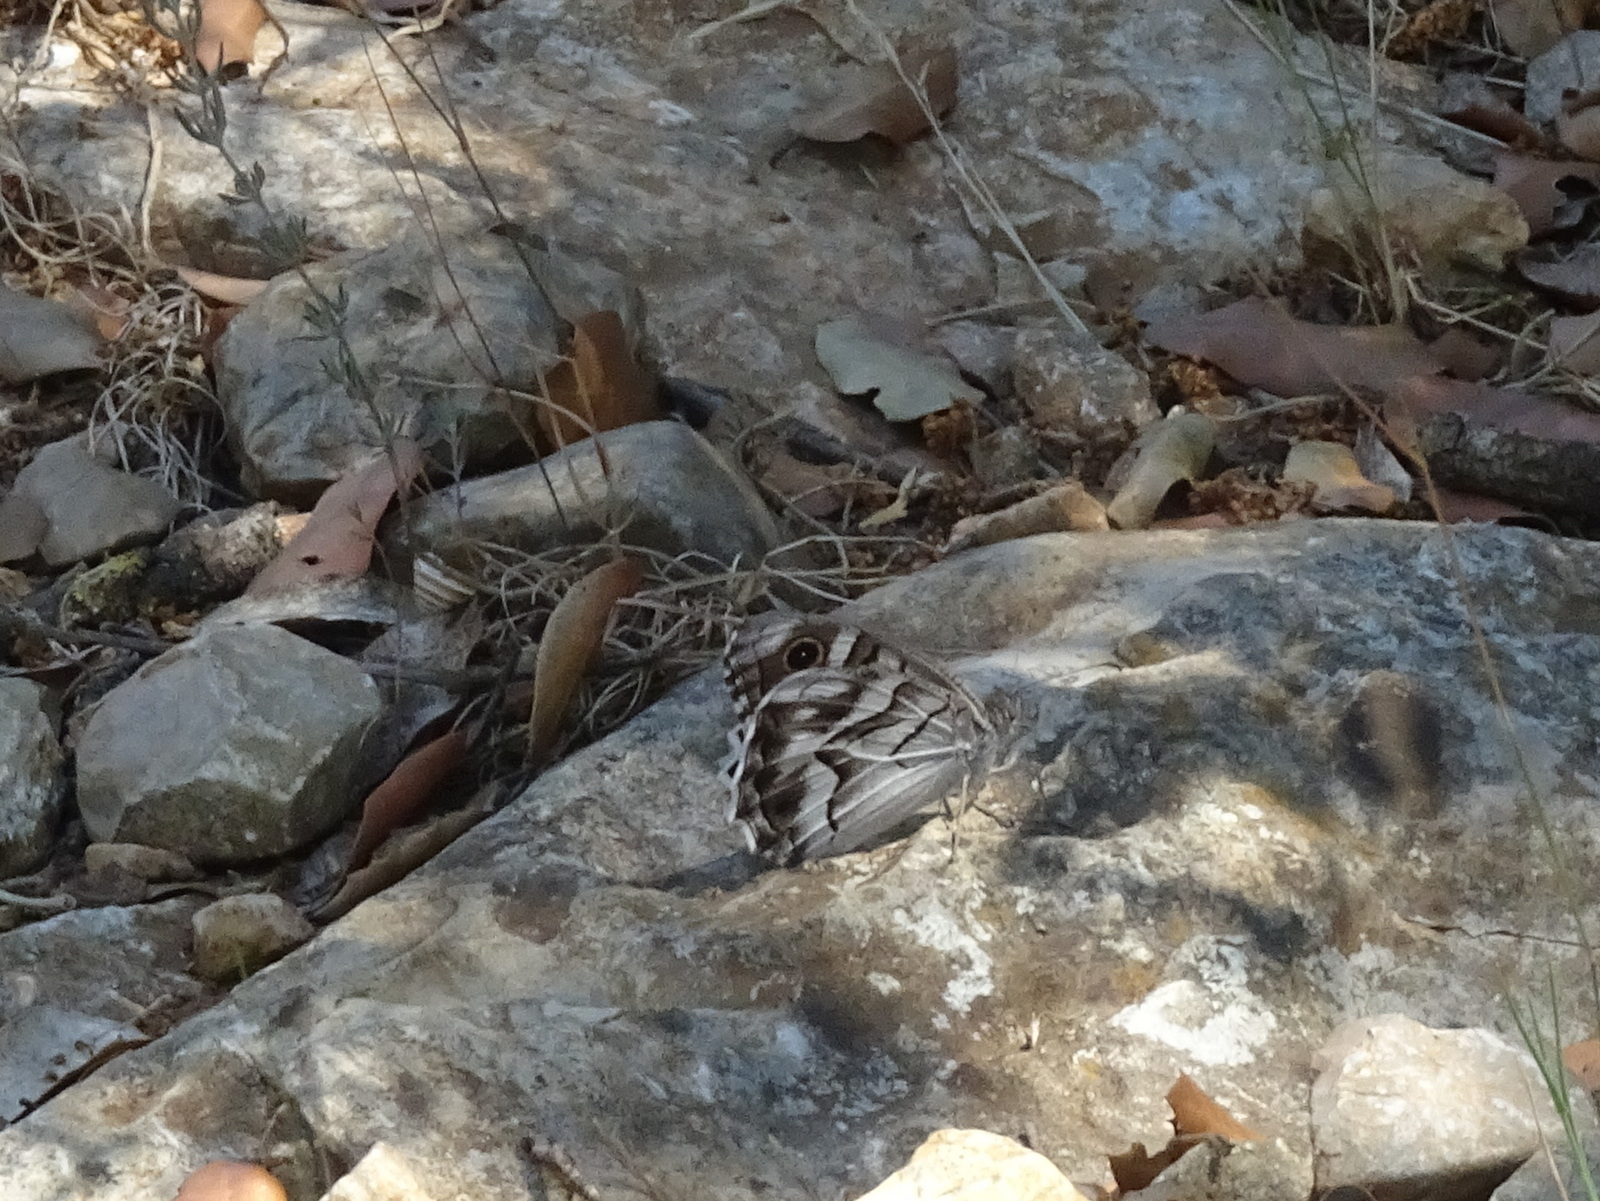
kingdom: Animalia
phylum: Arthropoda
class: Insecta
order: Lepidoptera
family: Nymphalidae
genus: Hipparchia
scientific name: Hipparchia fidia
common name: Striped grayling
